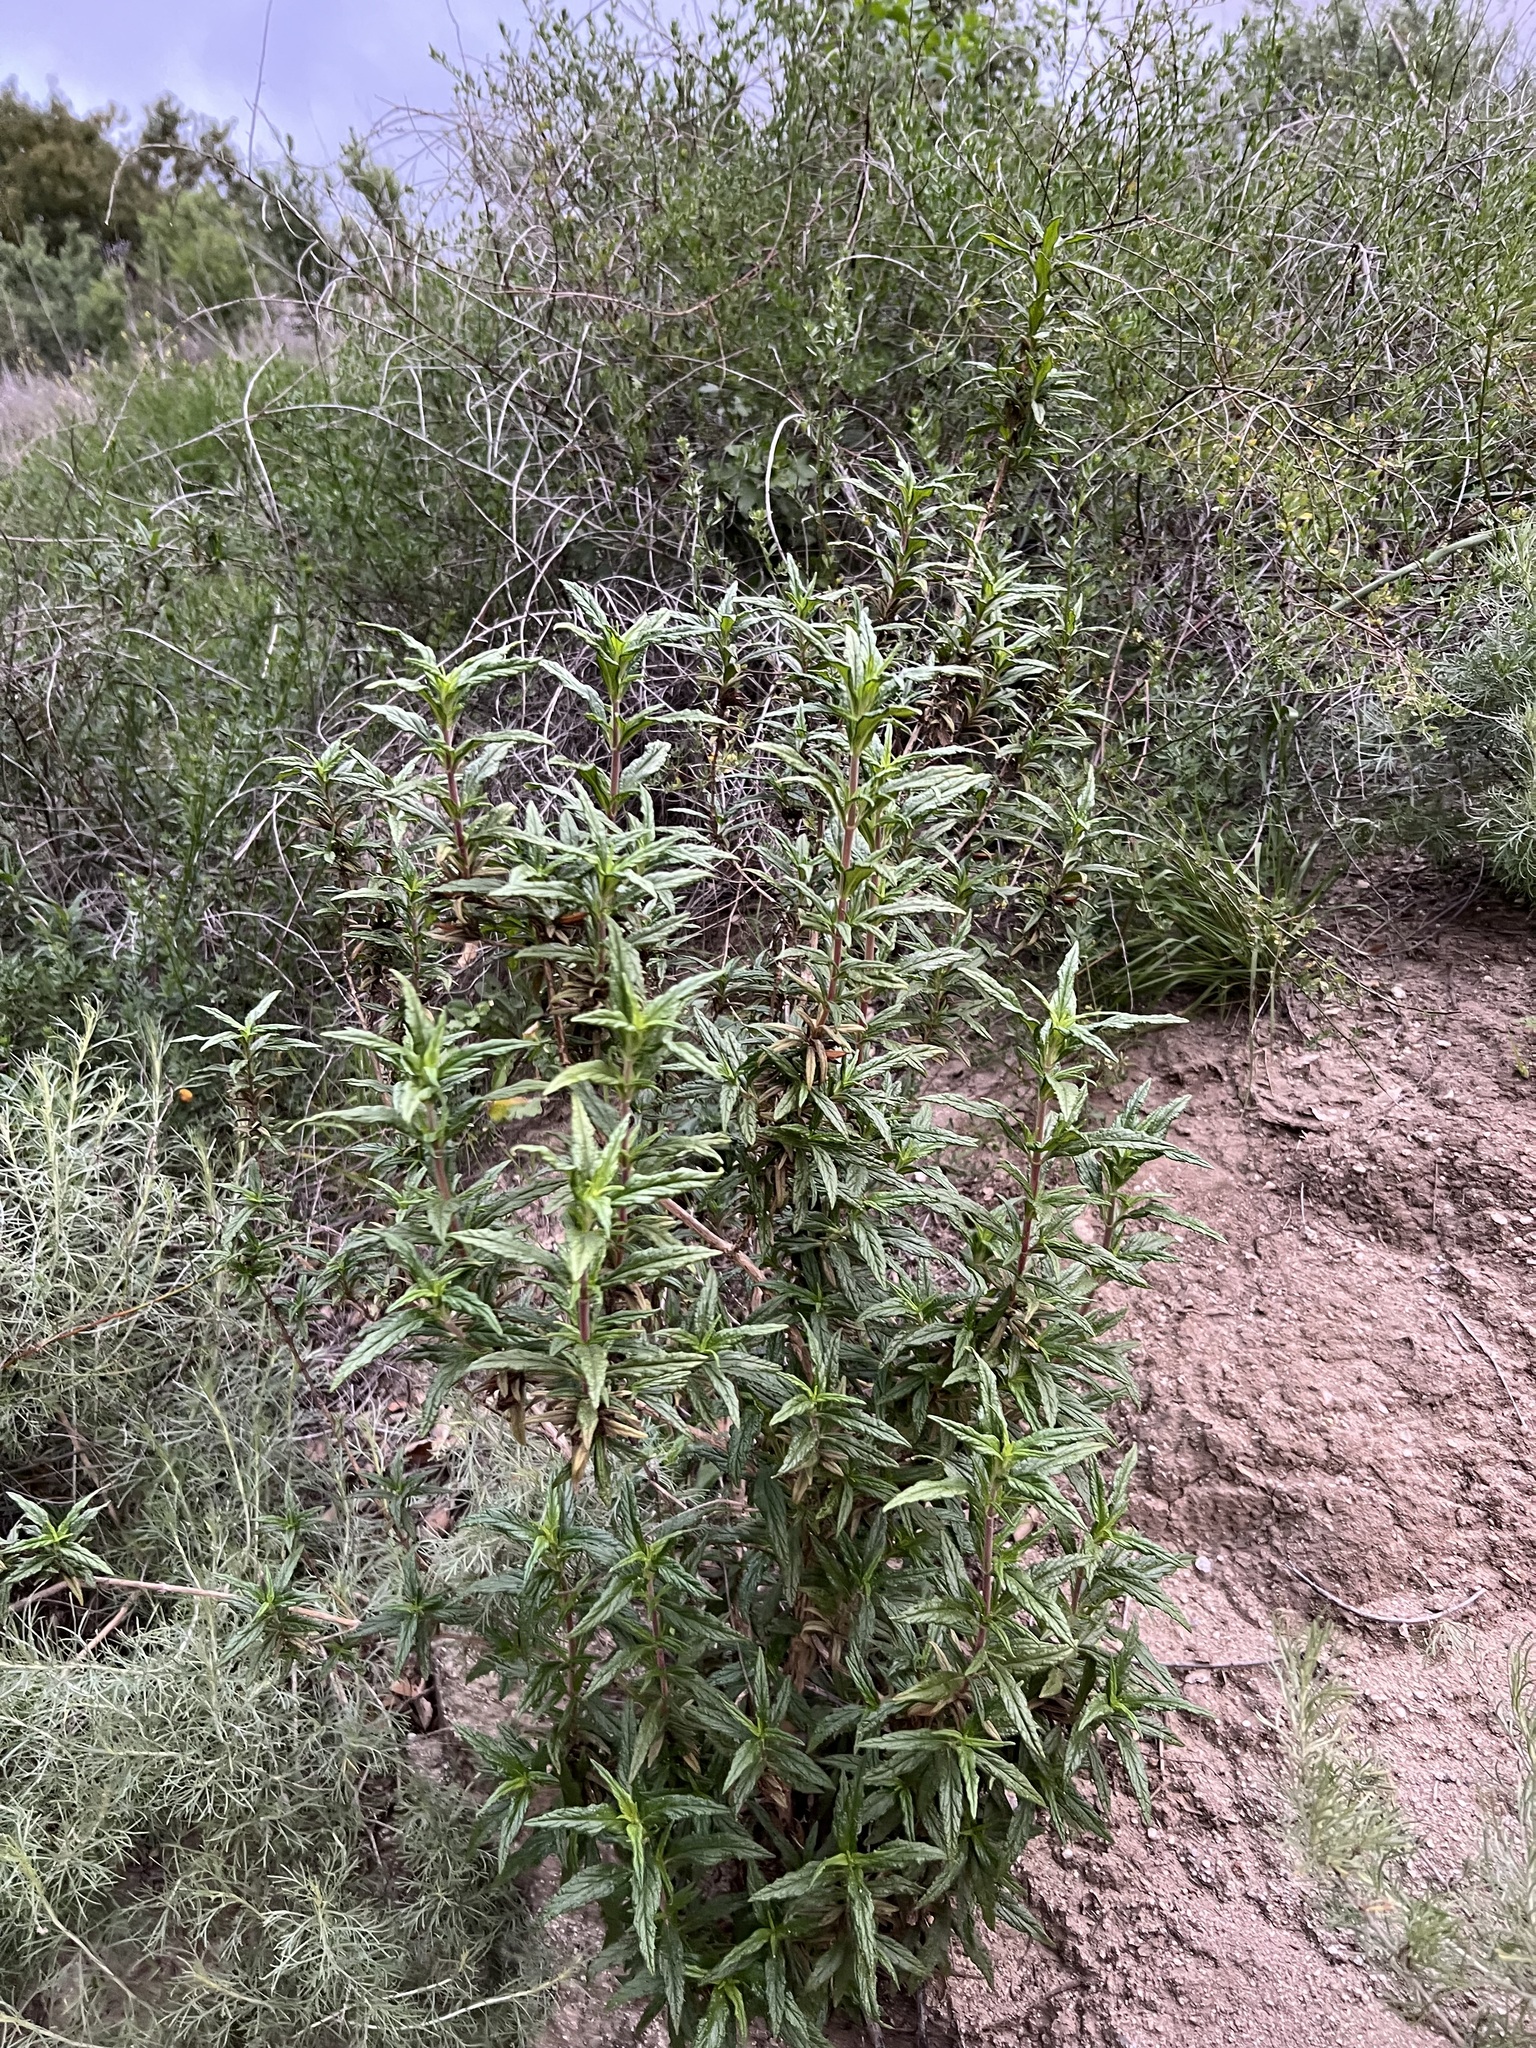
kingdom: Plantae
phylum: Tracheophyta
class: Magnoliopsida
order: Lamiales
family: Phrymaceae
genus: Diplacus
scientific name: Diplacus longiflorus
